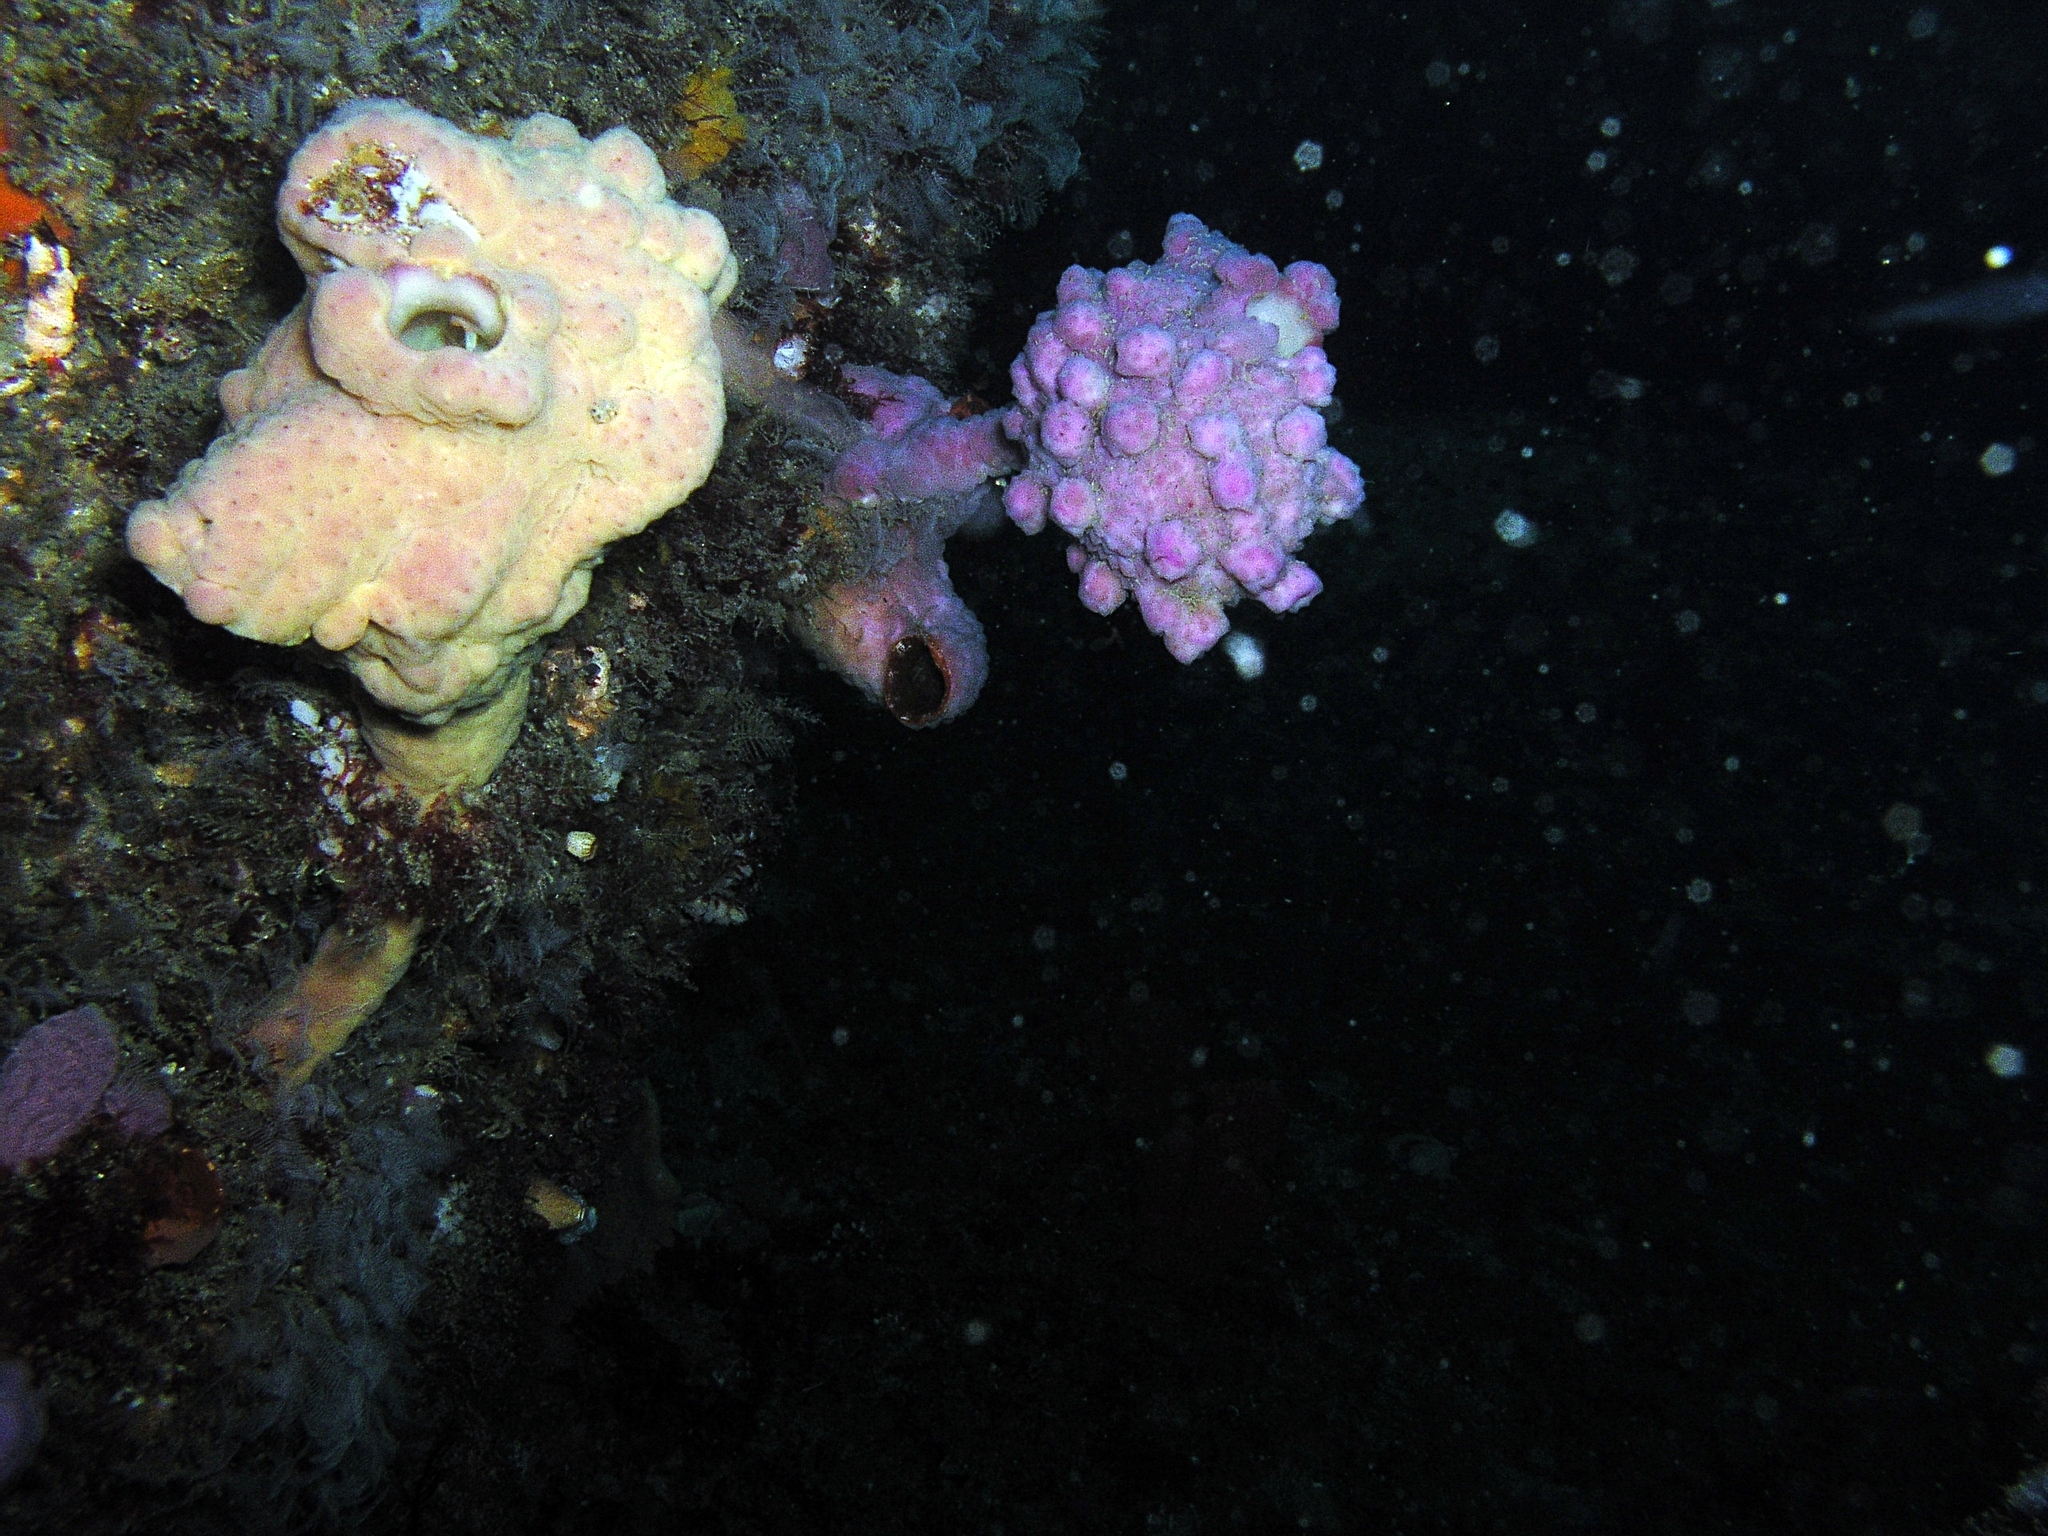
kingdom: Animalia
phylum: Chordata
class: Ascidiacea
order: Stolidobranchia
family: Pyuridae
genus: Pyura
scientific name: Pyura spinifera
